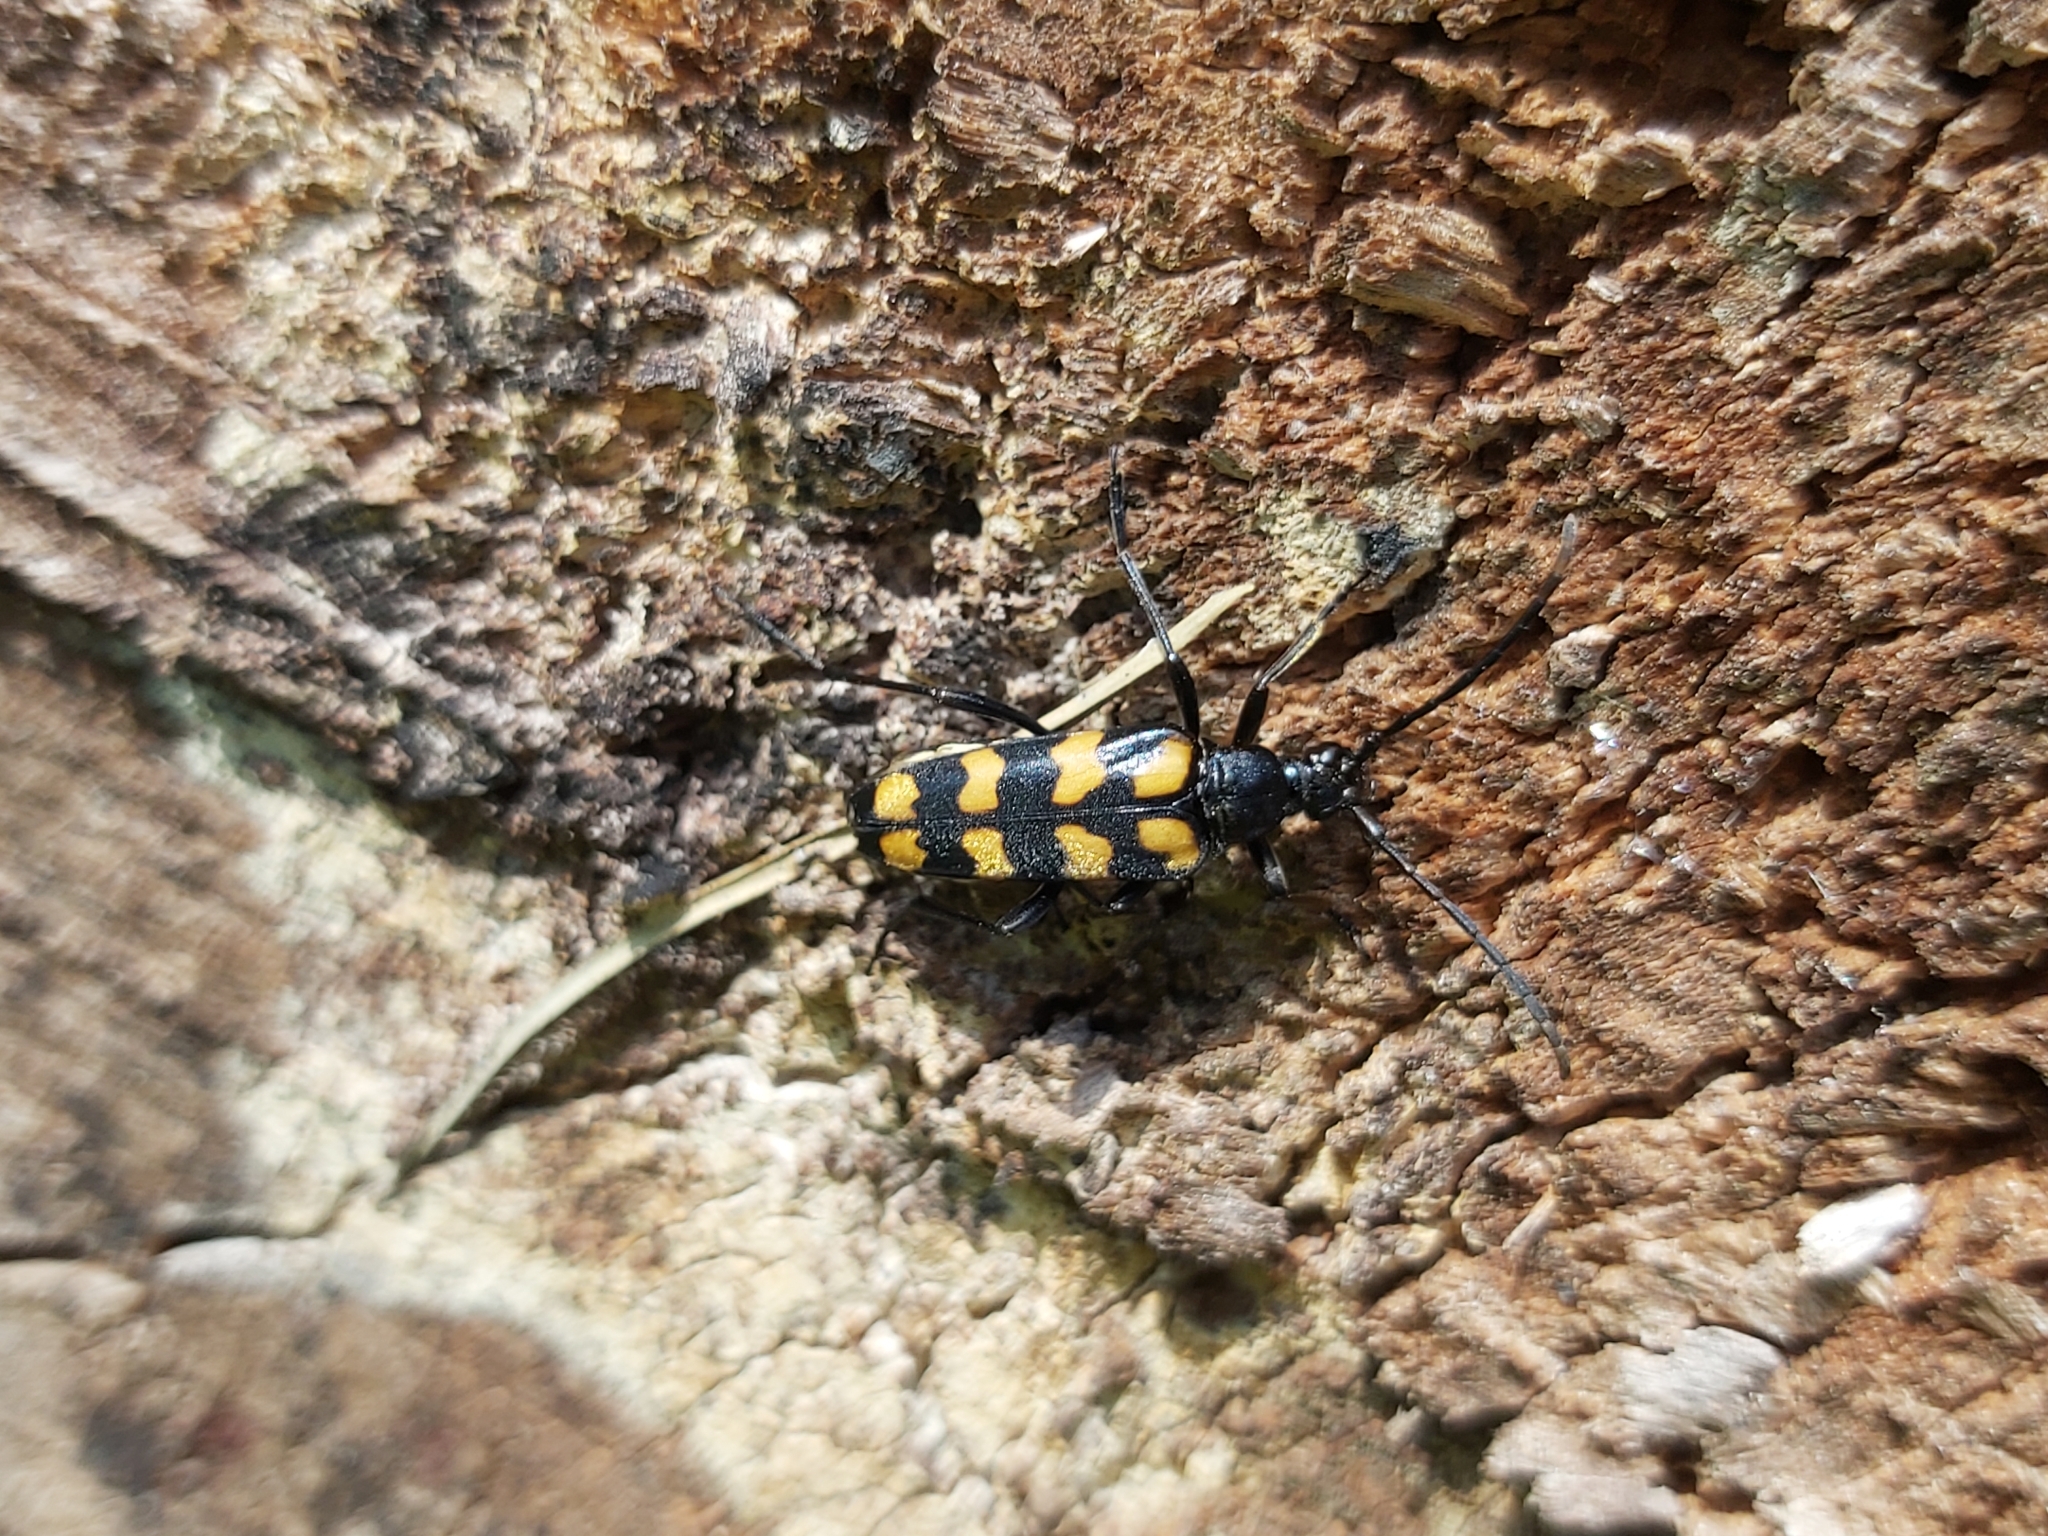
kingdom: Animalia
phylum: Arthropoda
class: Insecta
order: Coleoptera
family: Cerambycidae
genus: Leptura
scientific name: Leptura quadrifasciata
